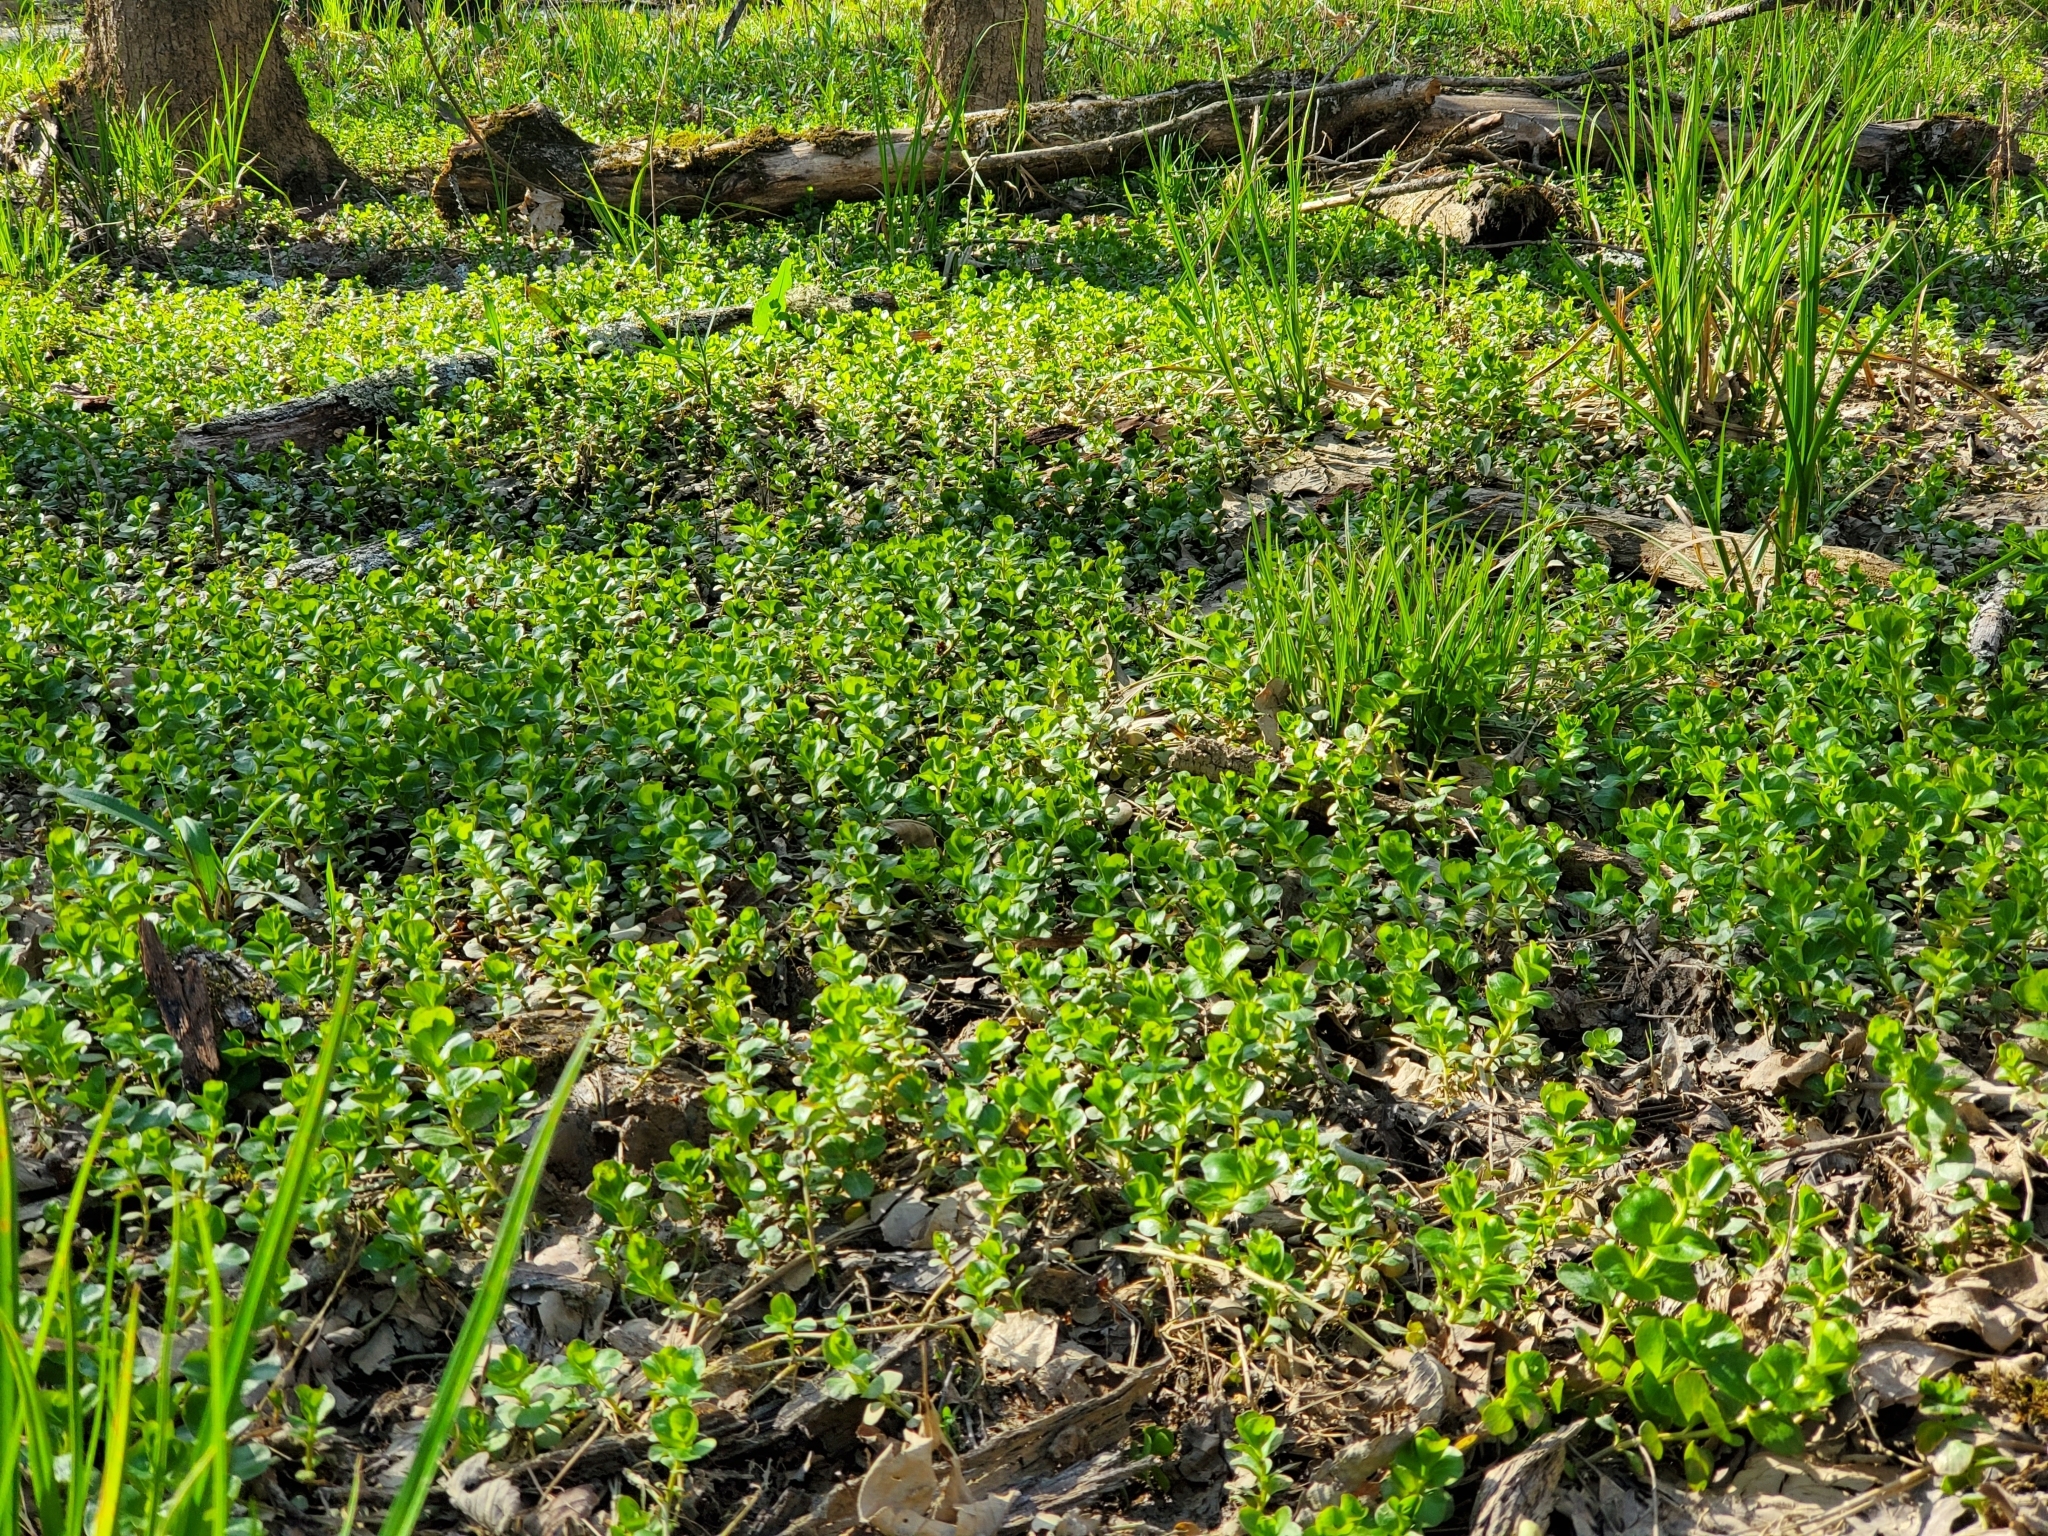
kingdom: Plantae
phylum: Tracheophyta
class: Magnoliopsida
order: Ericales
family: Primulaceae
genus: Lysimachia
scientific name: Lysimachia nummularia
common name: Moneywort
